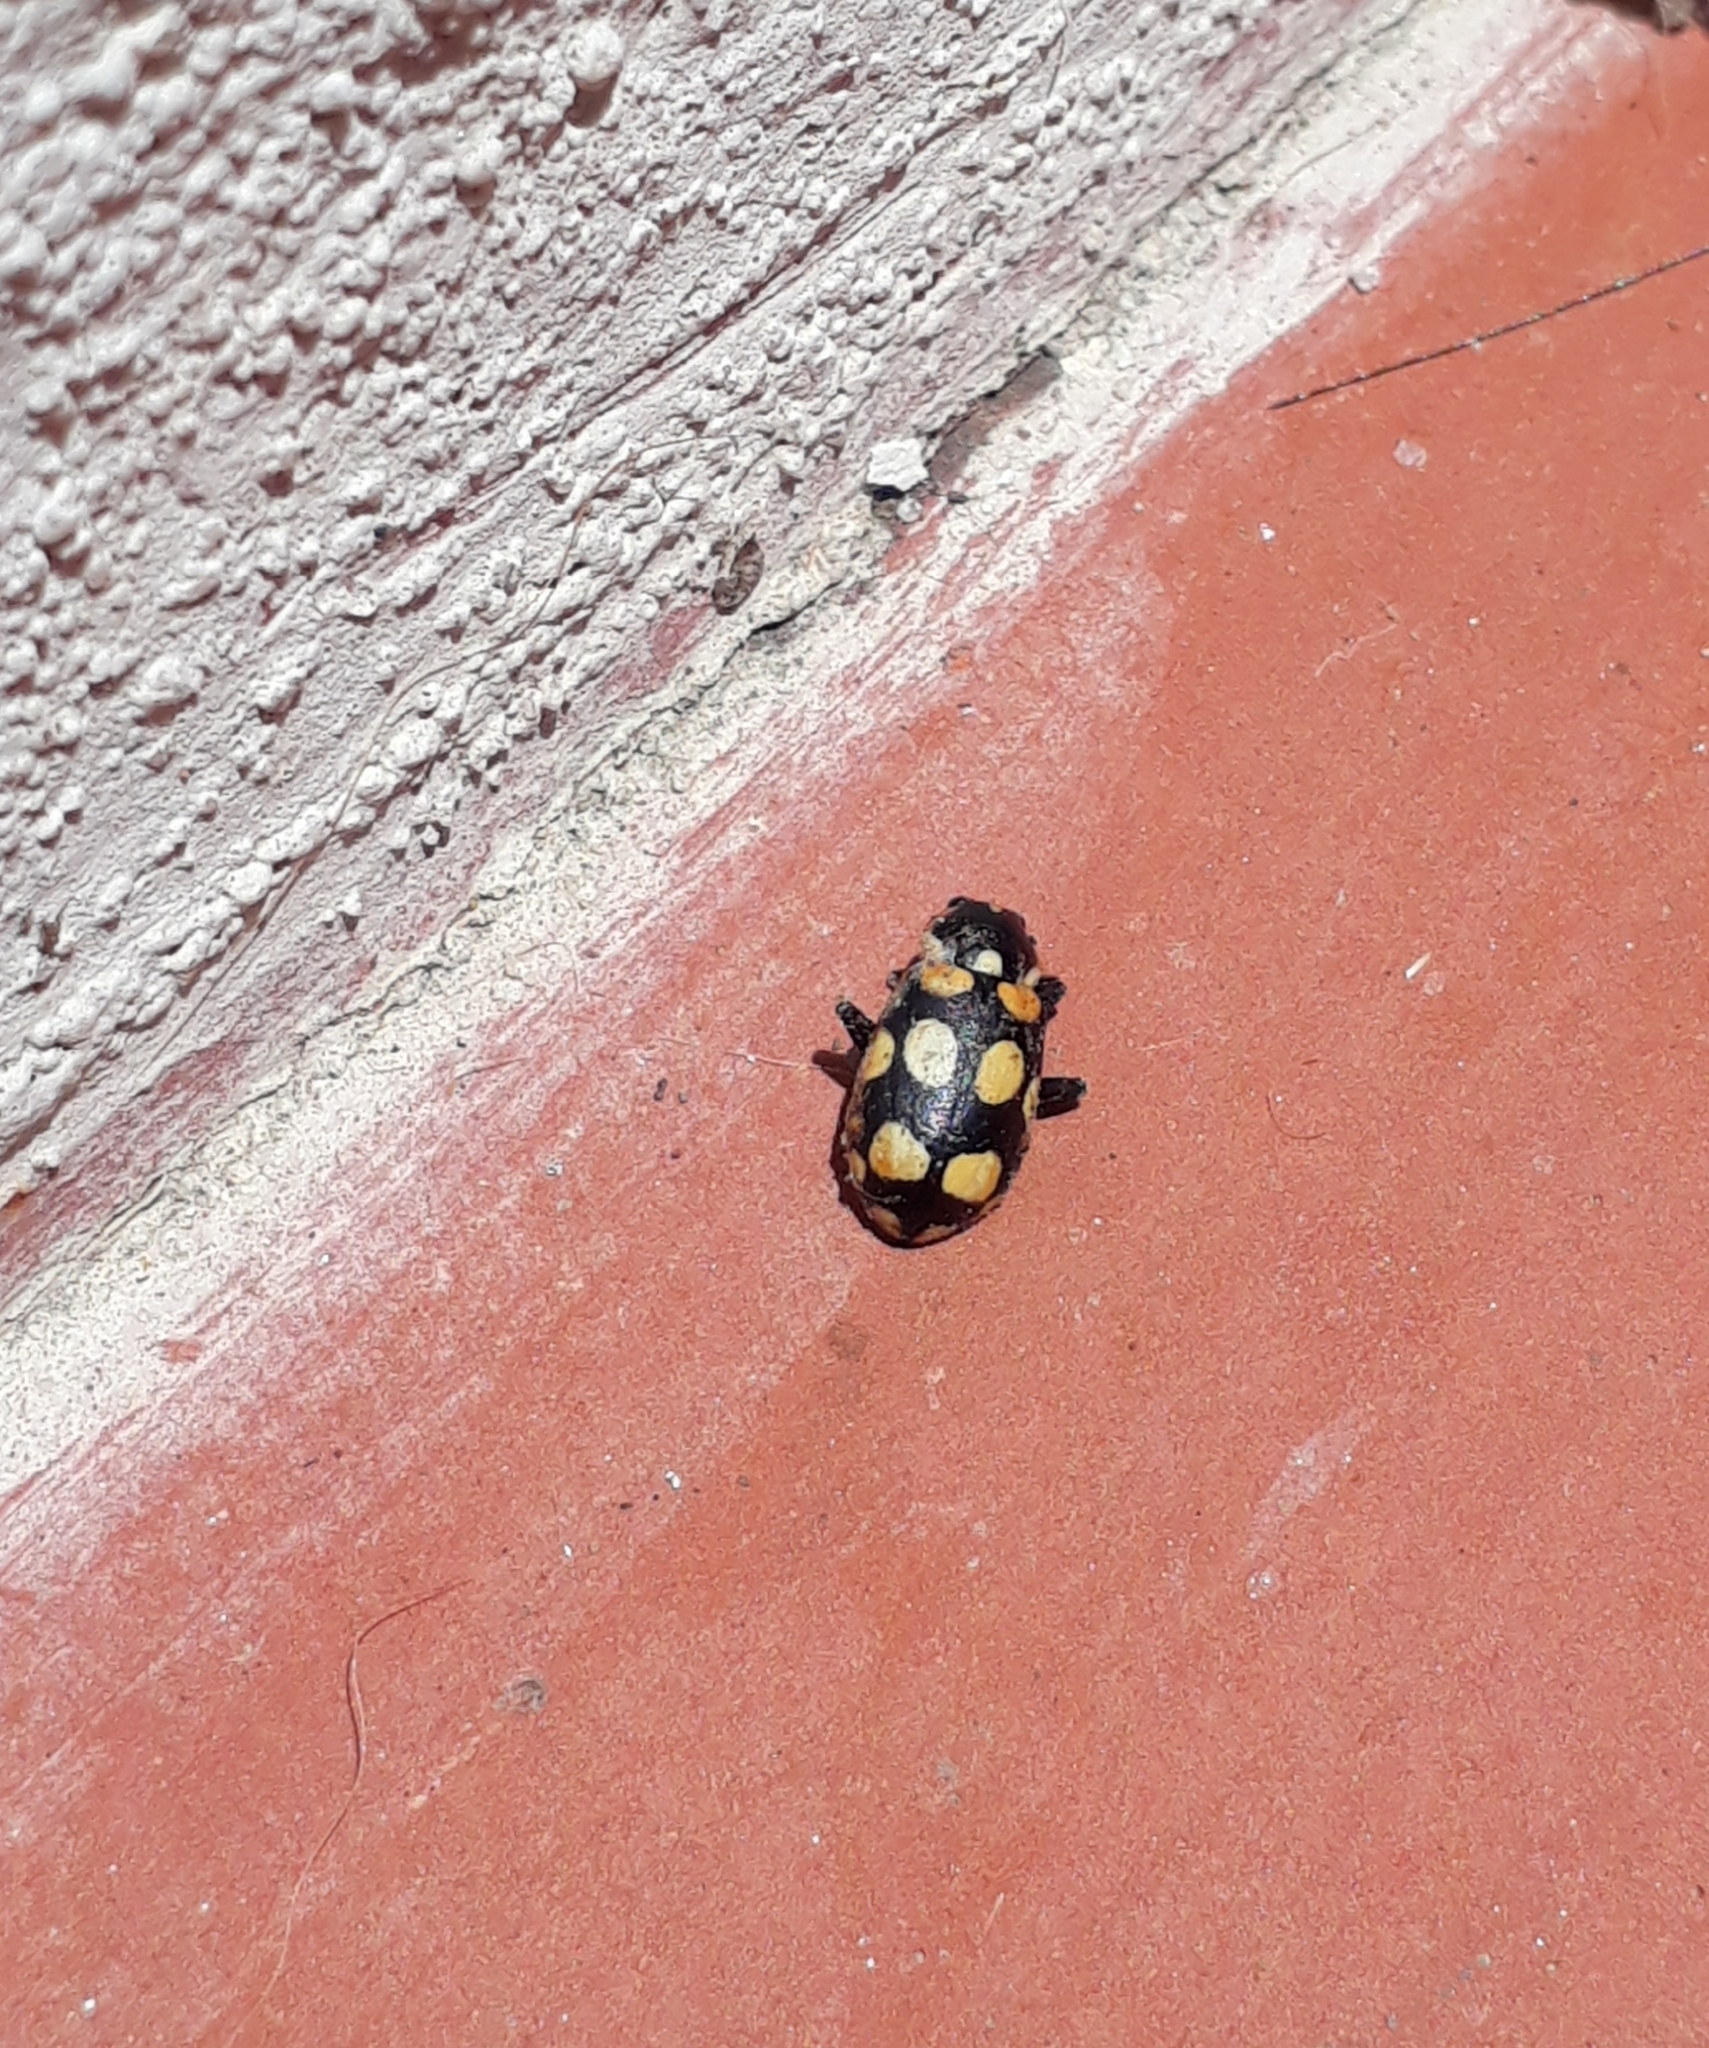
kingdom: Animalia
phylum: Arthropoda
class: Insecta
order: Coleoptera
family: Coccinellidae
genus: Eriopis
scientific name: Eriopis connexa
